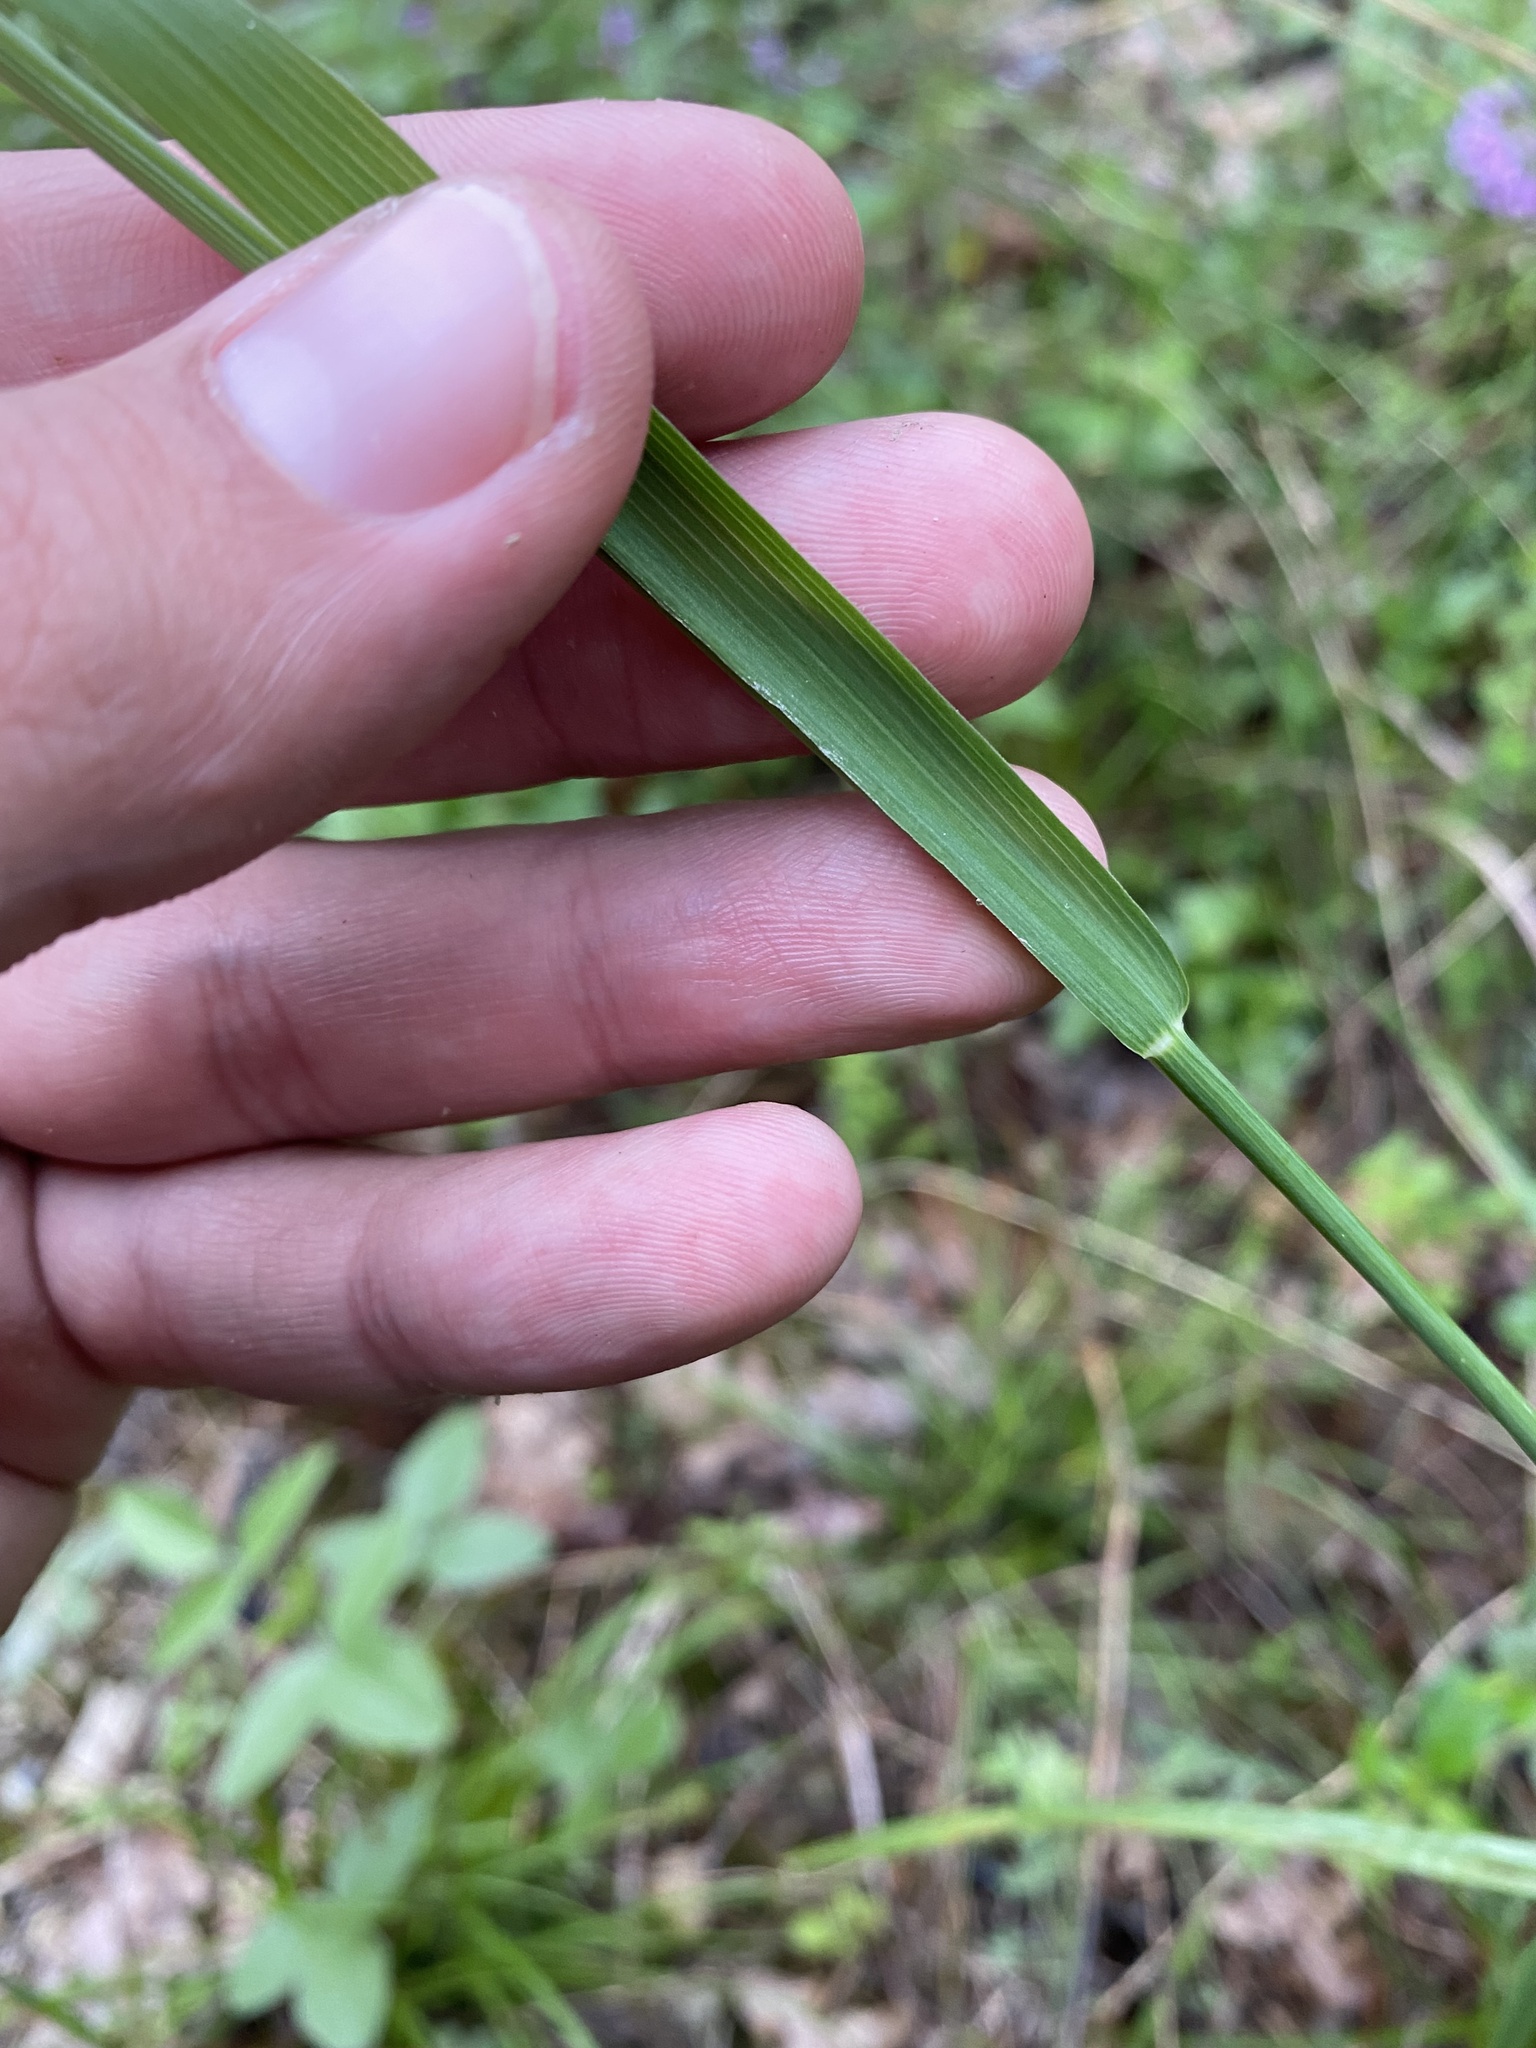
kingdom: Plantae
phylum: Tracheophyta
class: Liliopsida
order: Poales
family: Poaceae
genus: Briza
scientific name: Briza media
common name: Quaking grass
